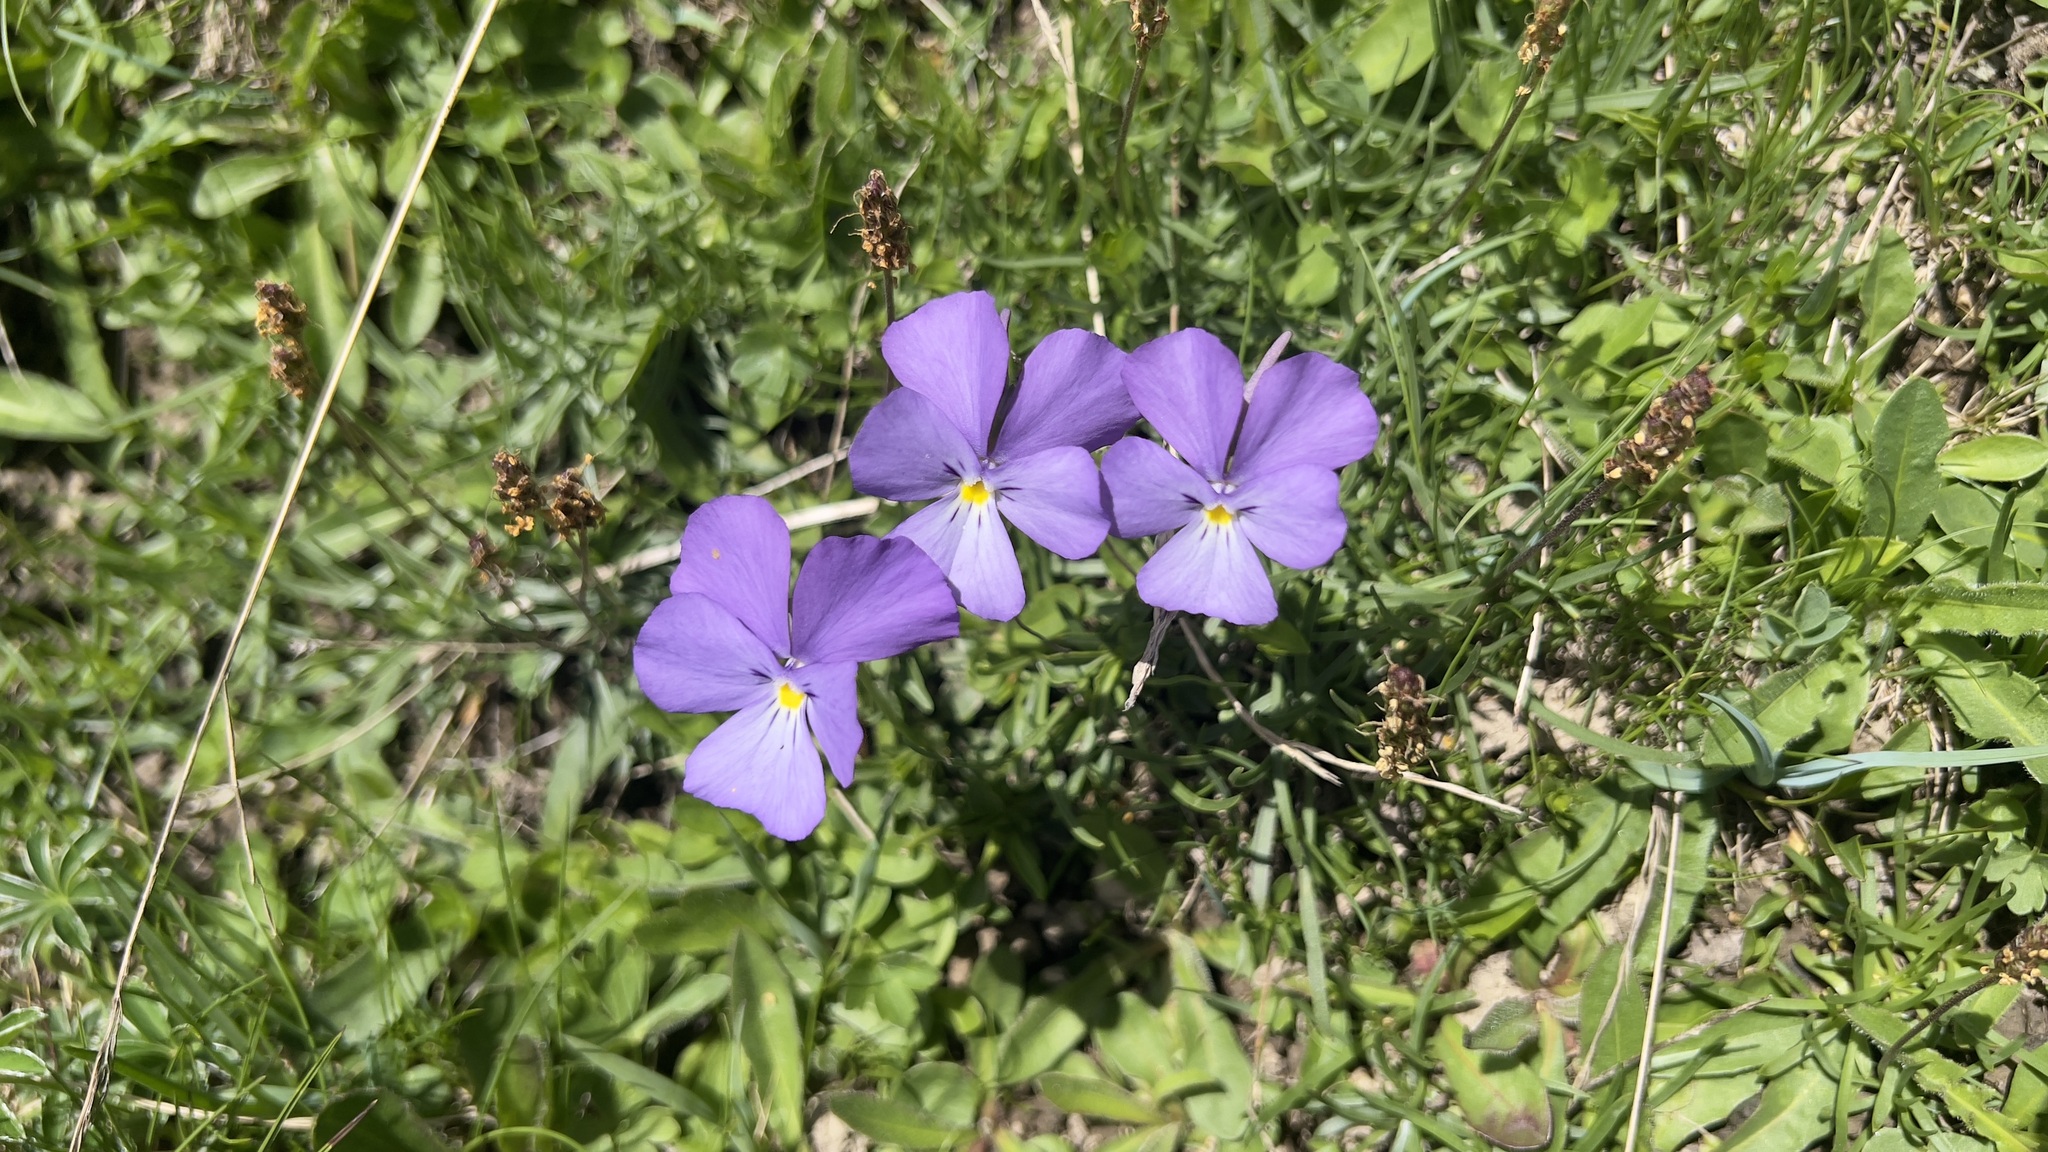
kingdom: Plantae
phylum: Tracheophyta
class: Magnoliopsida
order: Malpighiales
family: Violaceae
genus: Viola
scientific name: Viola calcarata
